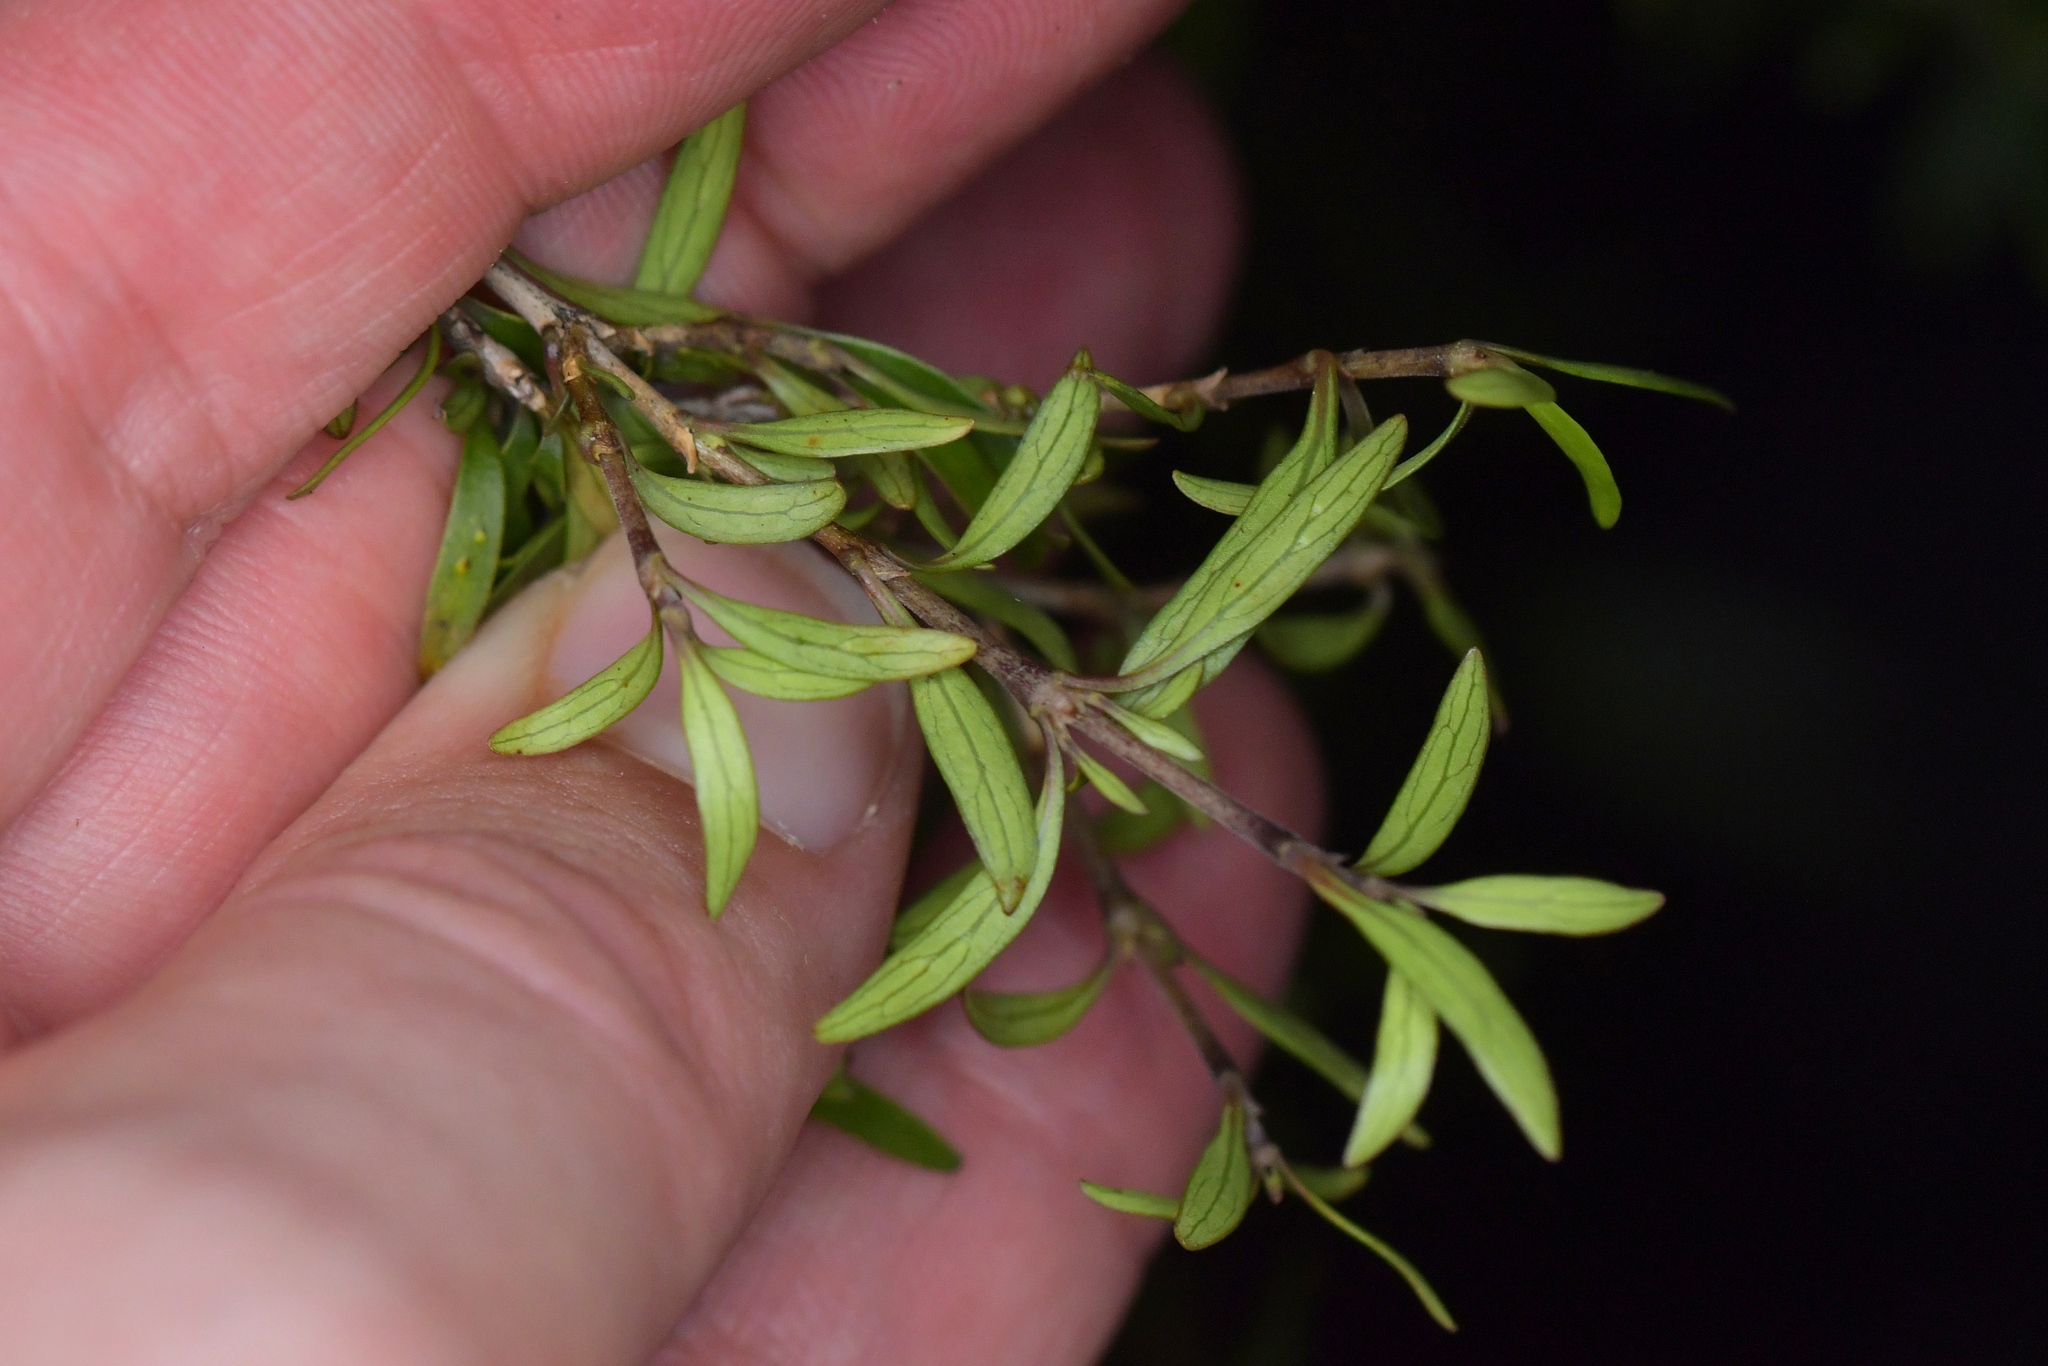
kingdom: Plantae
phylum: Tracheophyta
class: Magnoliopsida
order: Gentianales
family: Rubiaceae
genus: Coprosma
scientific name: Coprosma linariifolia
